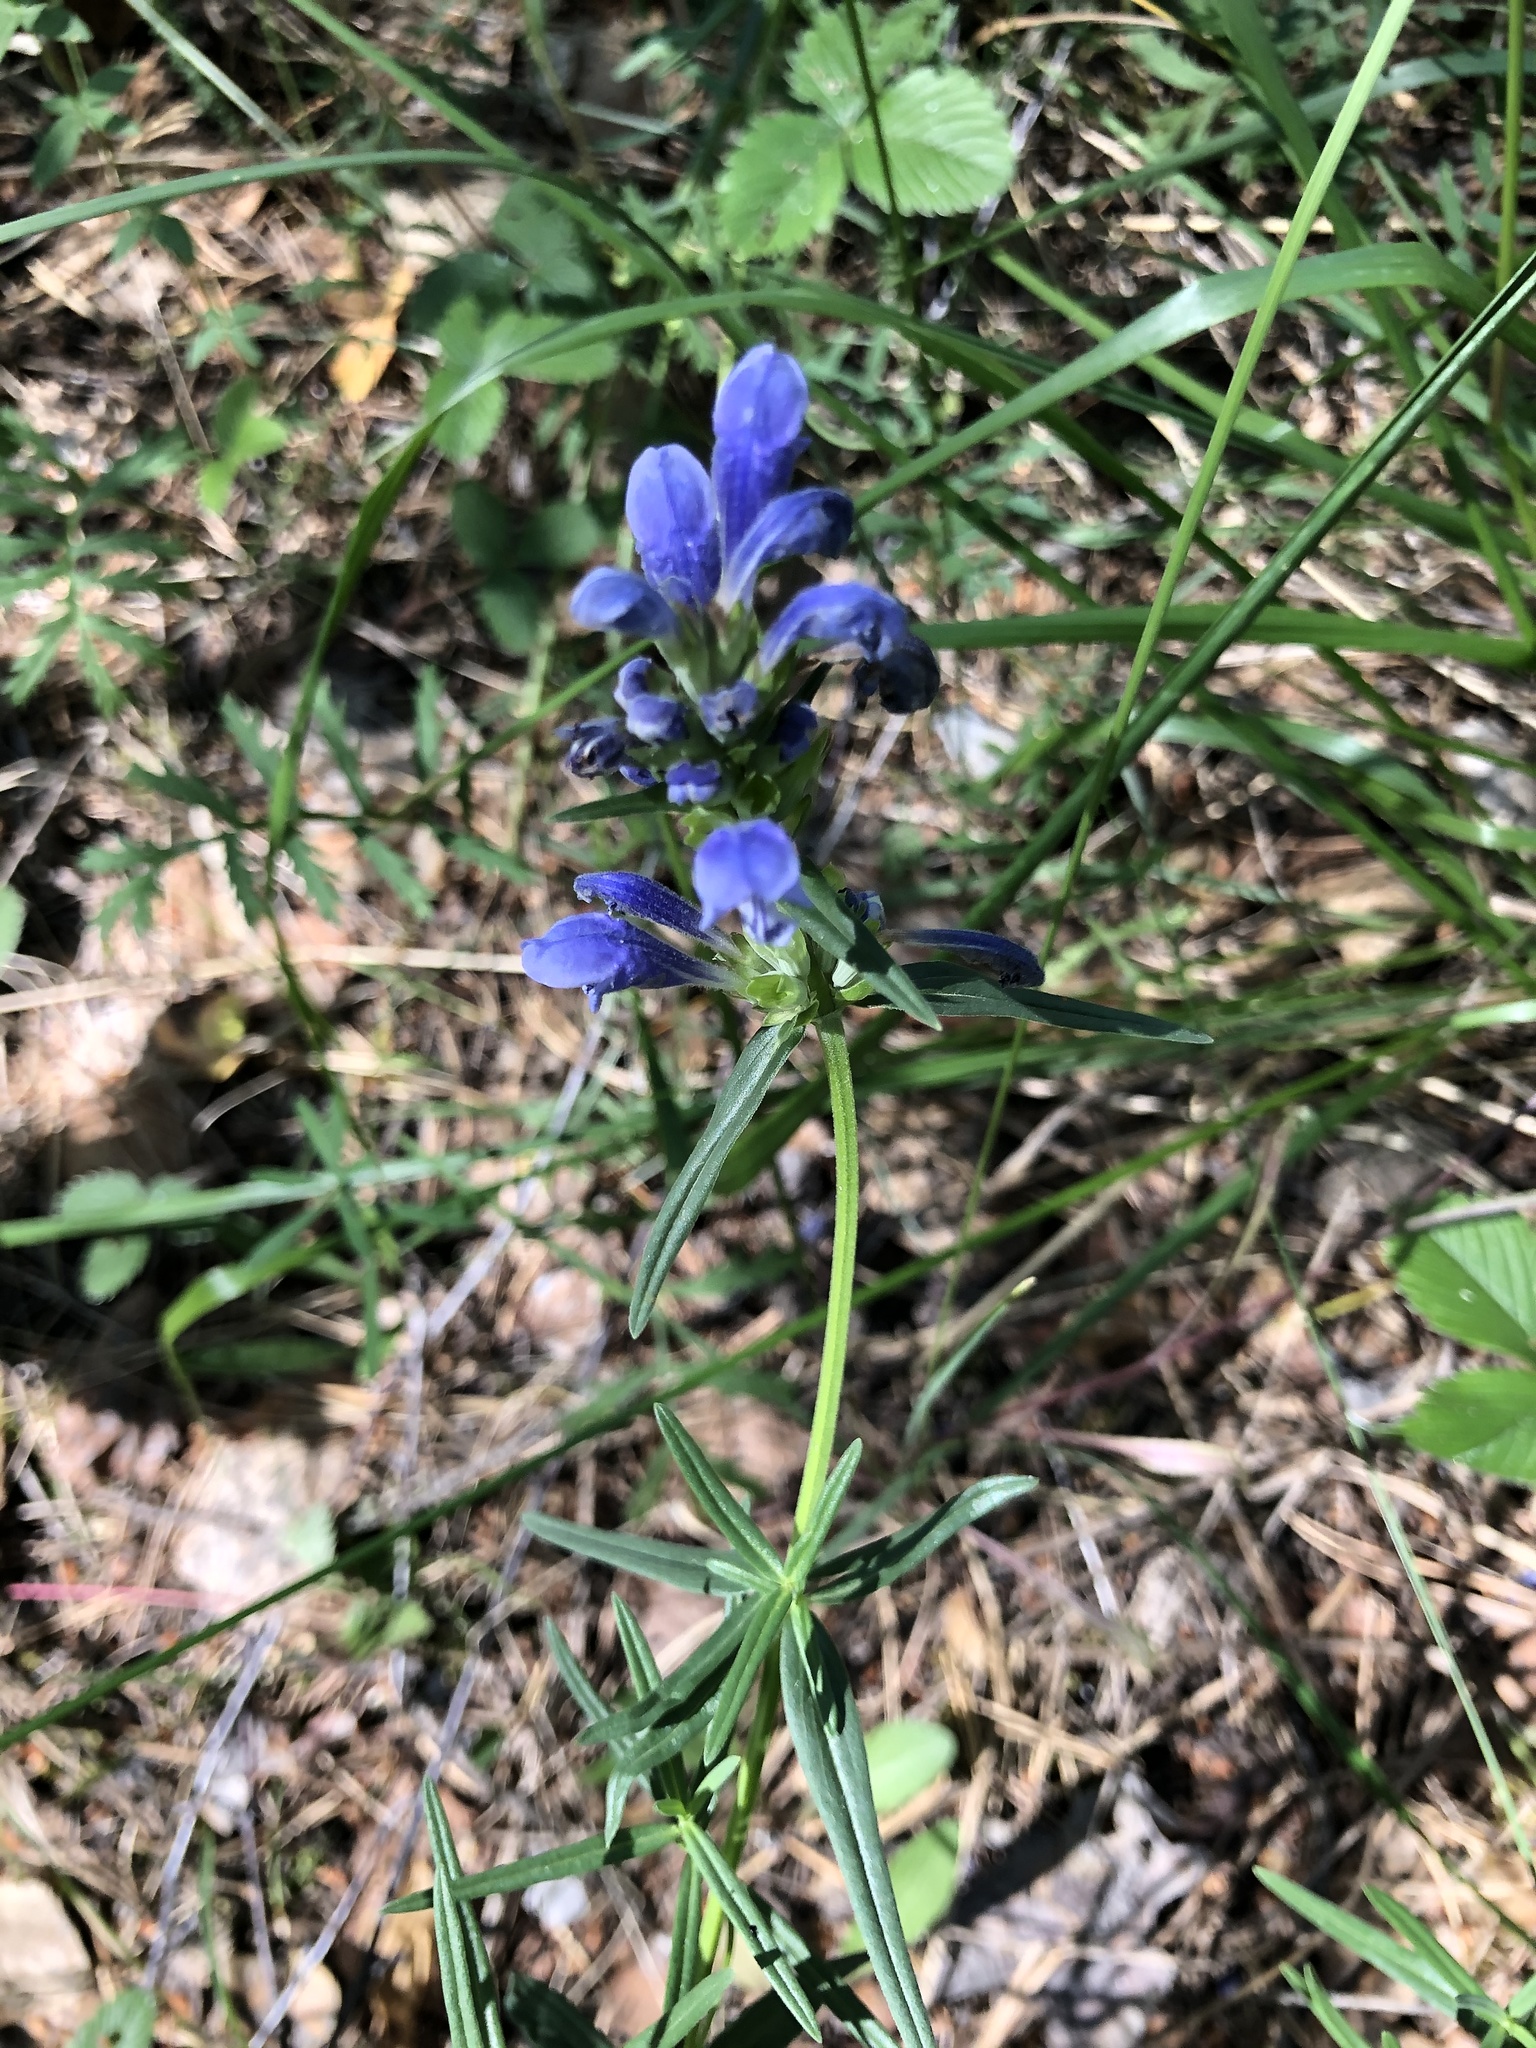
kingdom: Plantae
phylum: Tracheophyta
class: Magnoliopsida
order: Lamiales
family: Lamiaceae
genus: Dracocephalum
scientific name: Dracocephalum ruyschiana
